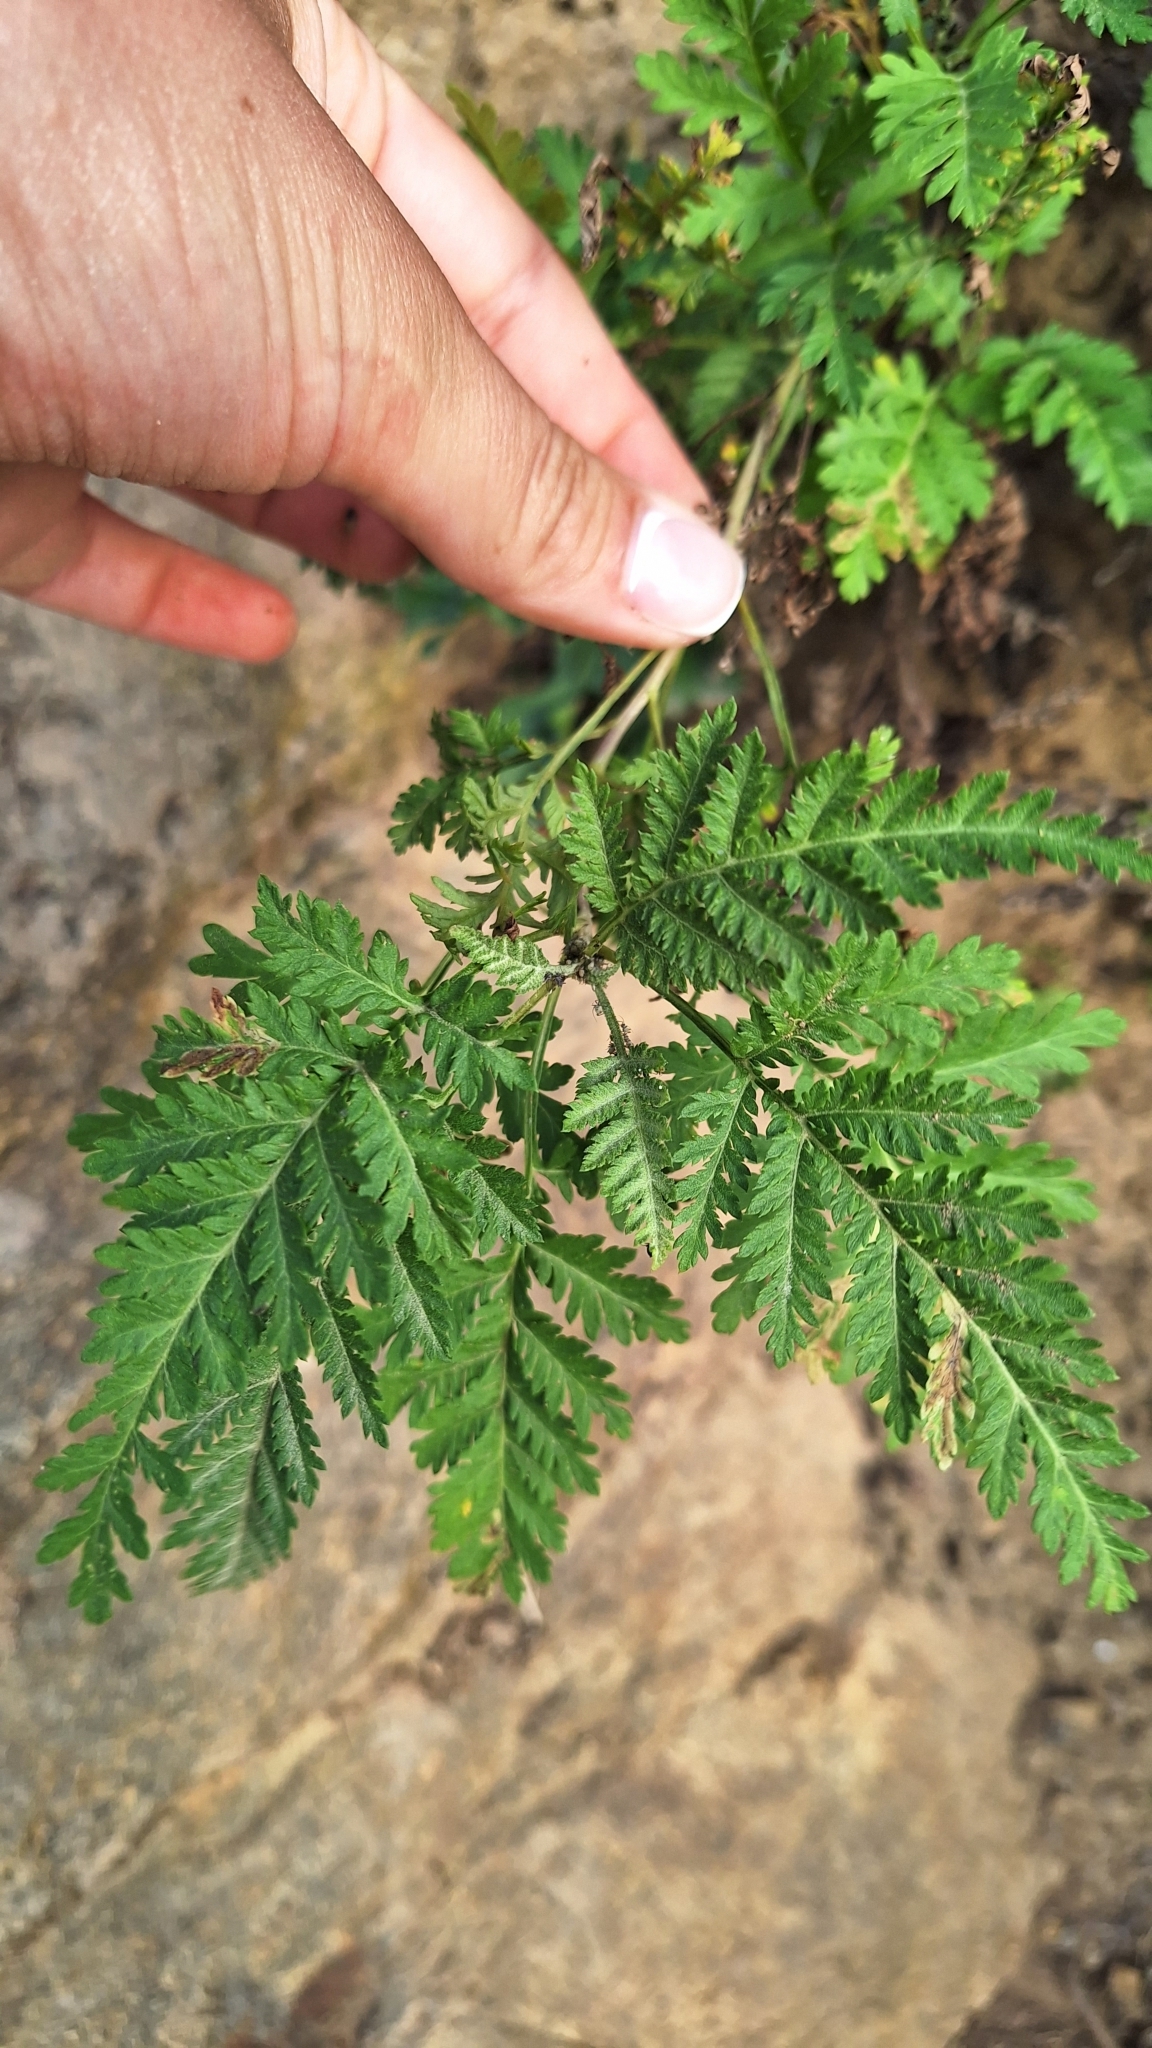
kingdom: Plantae
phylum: Tracheophyta
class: Magnoliopsida
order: Asterales
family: Asteraceae
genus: Artemisia
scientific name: Artemisia gmelinii
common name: Gmelin's wormwood
